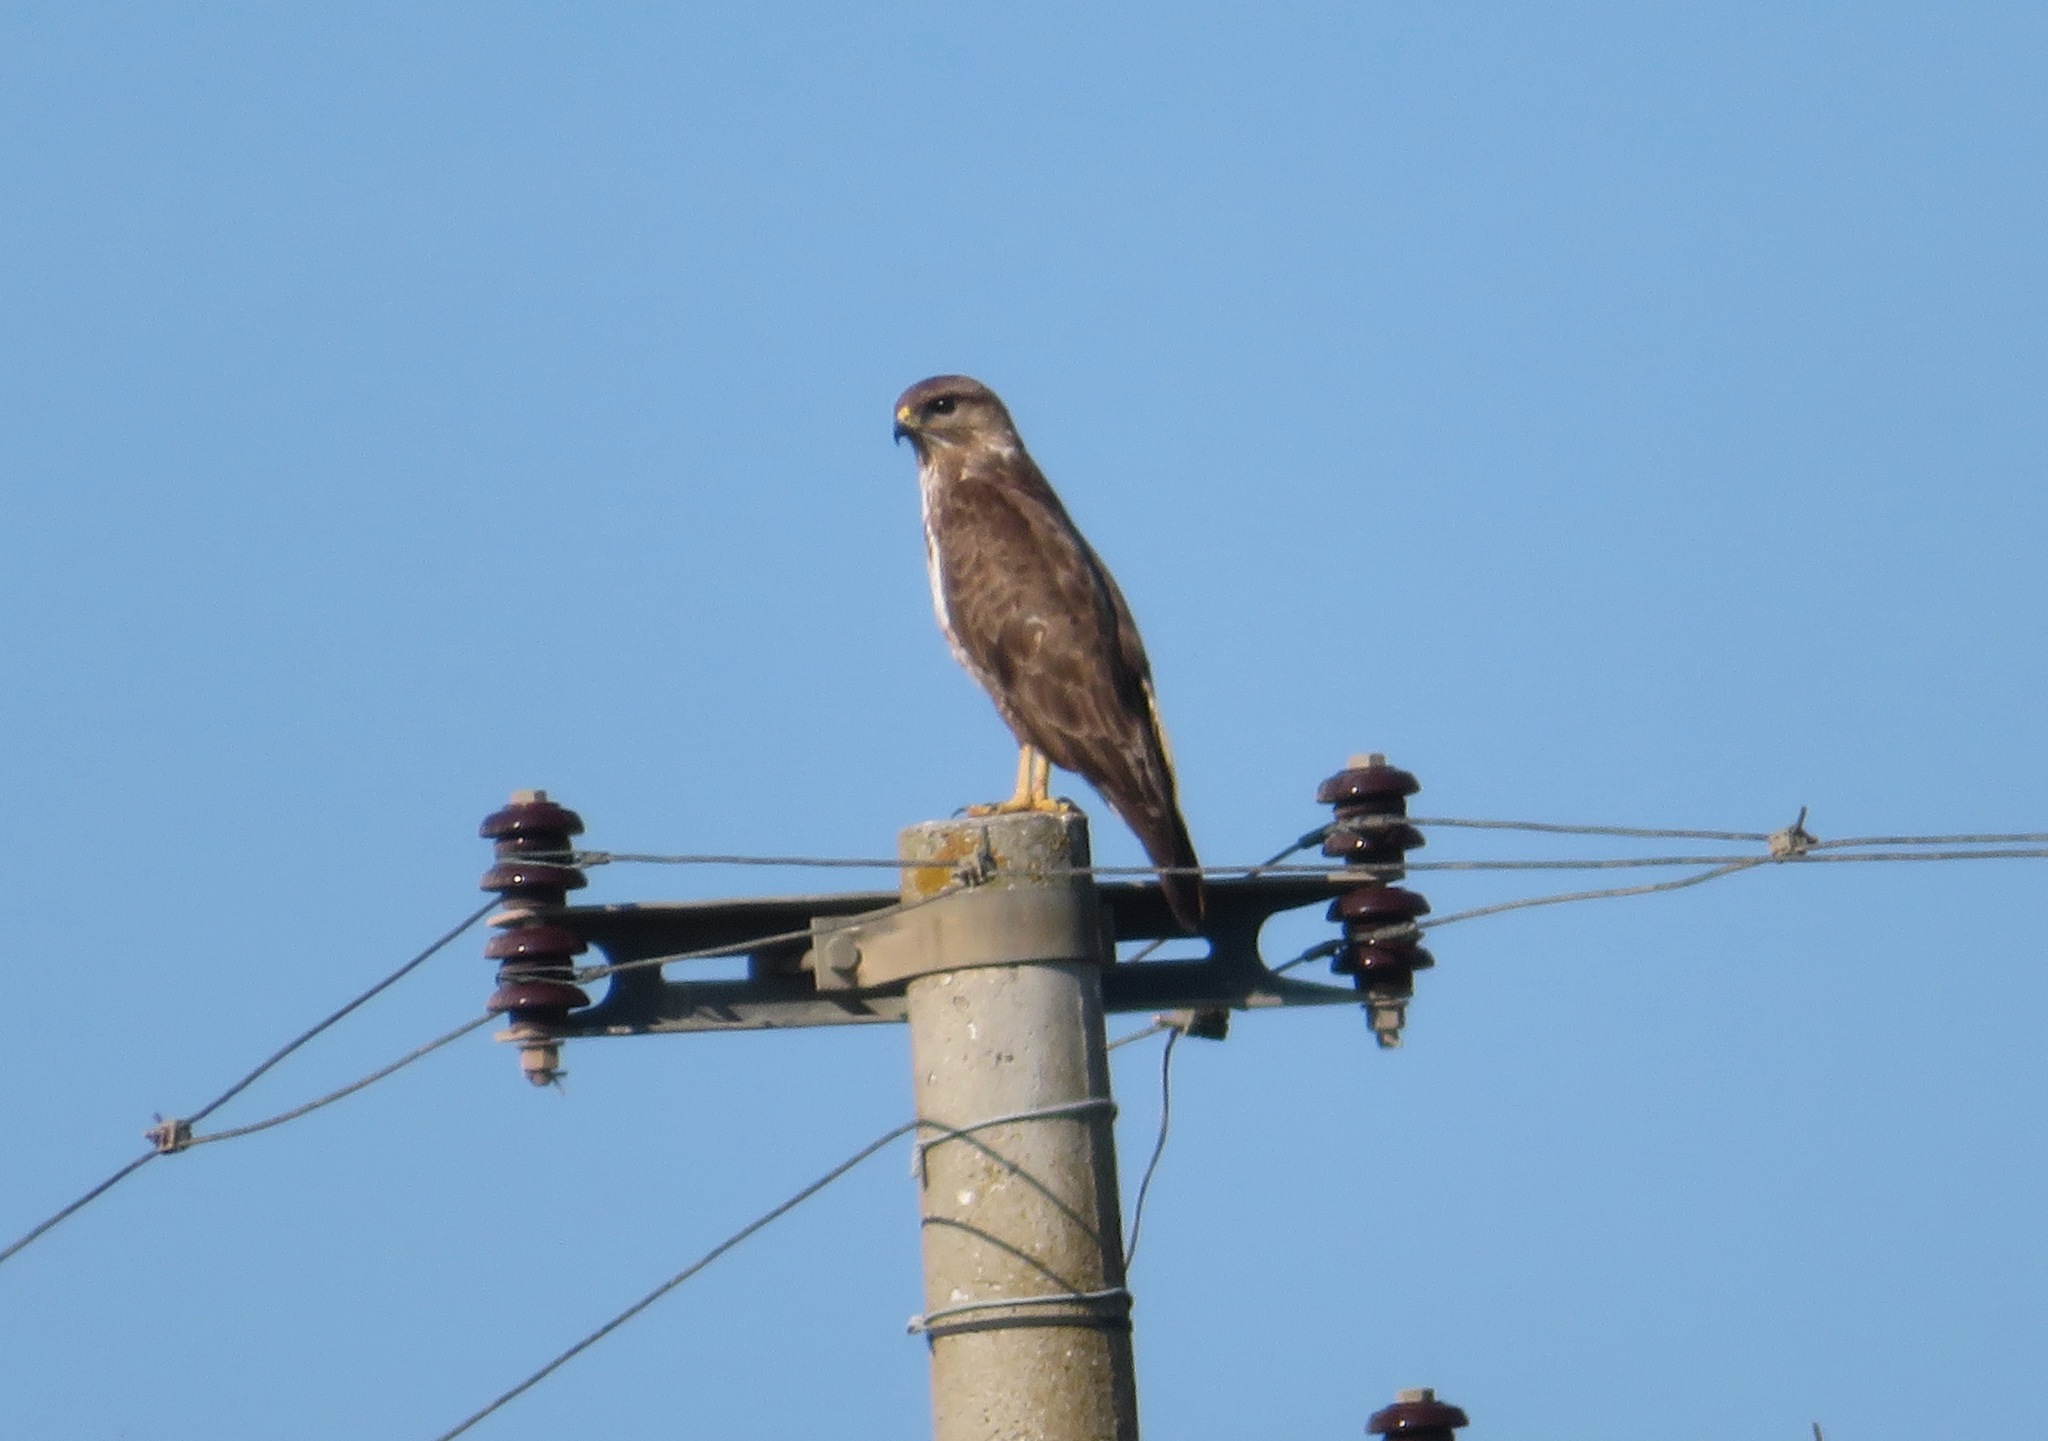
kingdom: Animalia
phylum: Chordata
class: Aves
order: Accipitriformes
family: Accipitridae
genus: Buteo
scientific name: Buteo buteo
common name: Common buzzard
